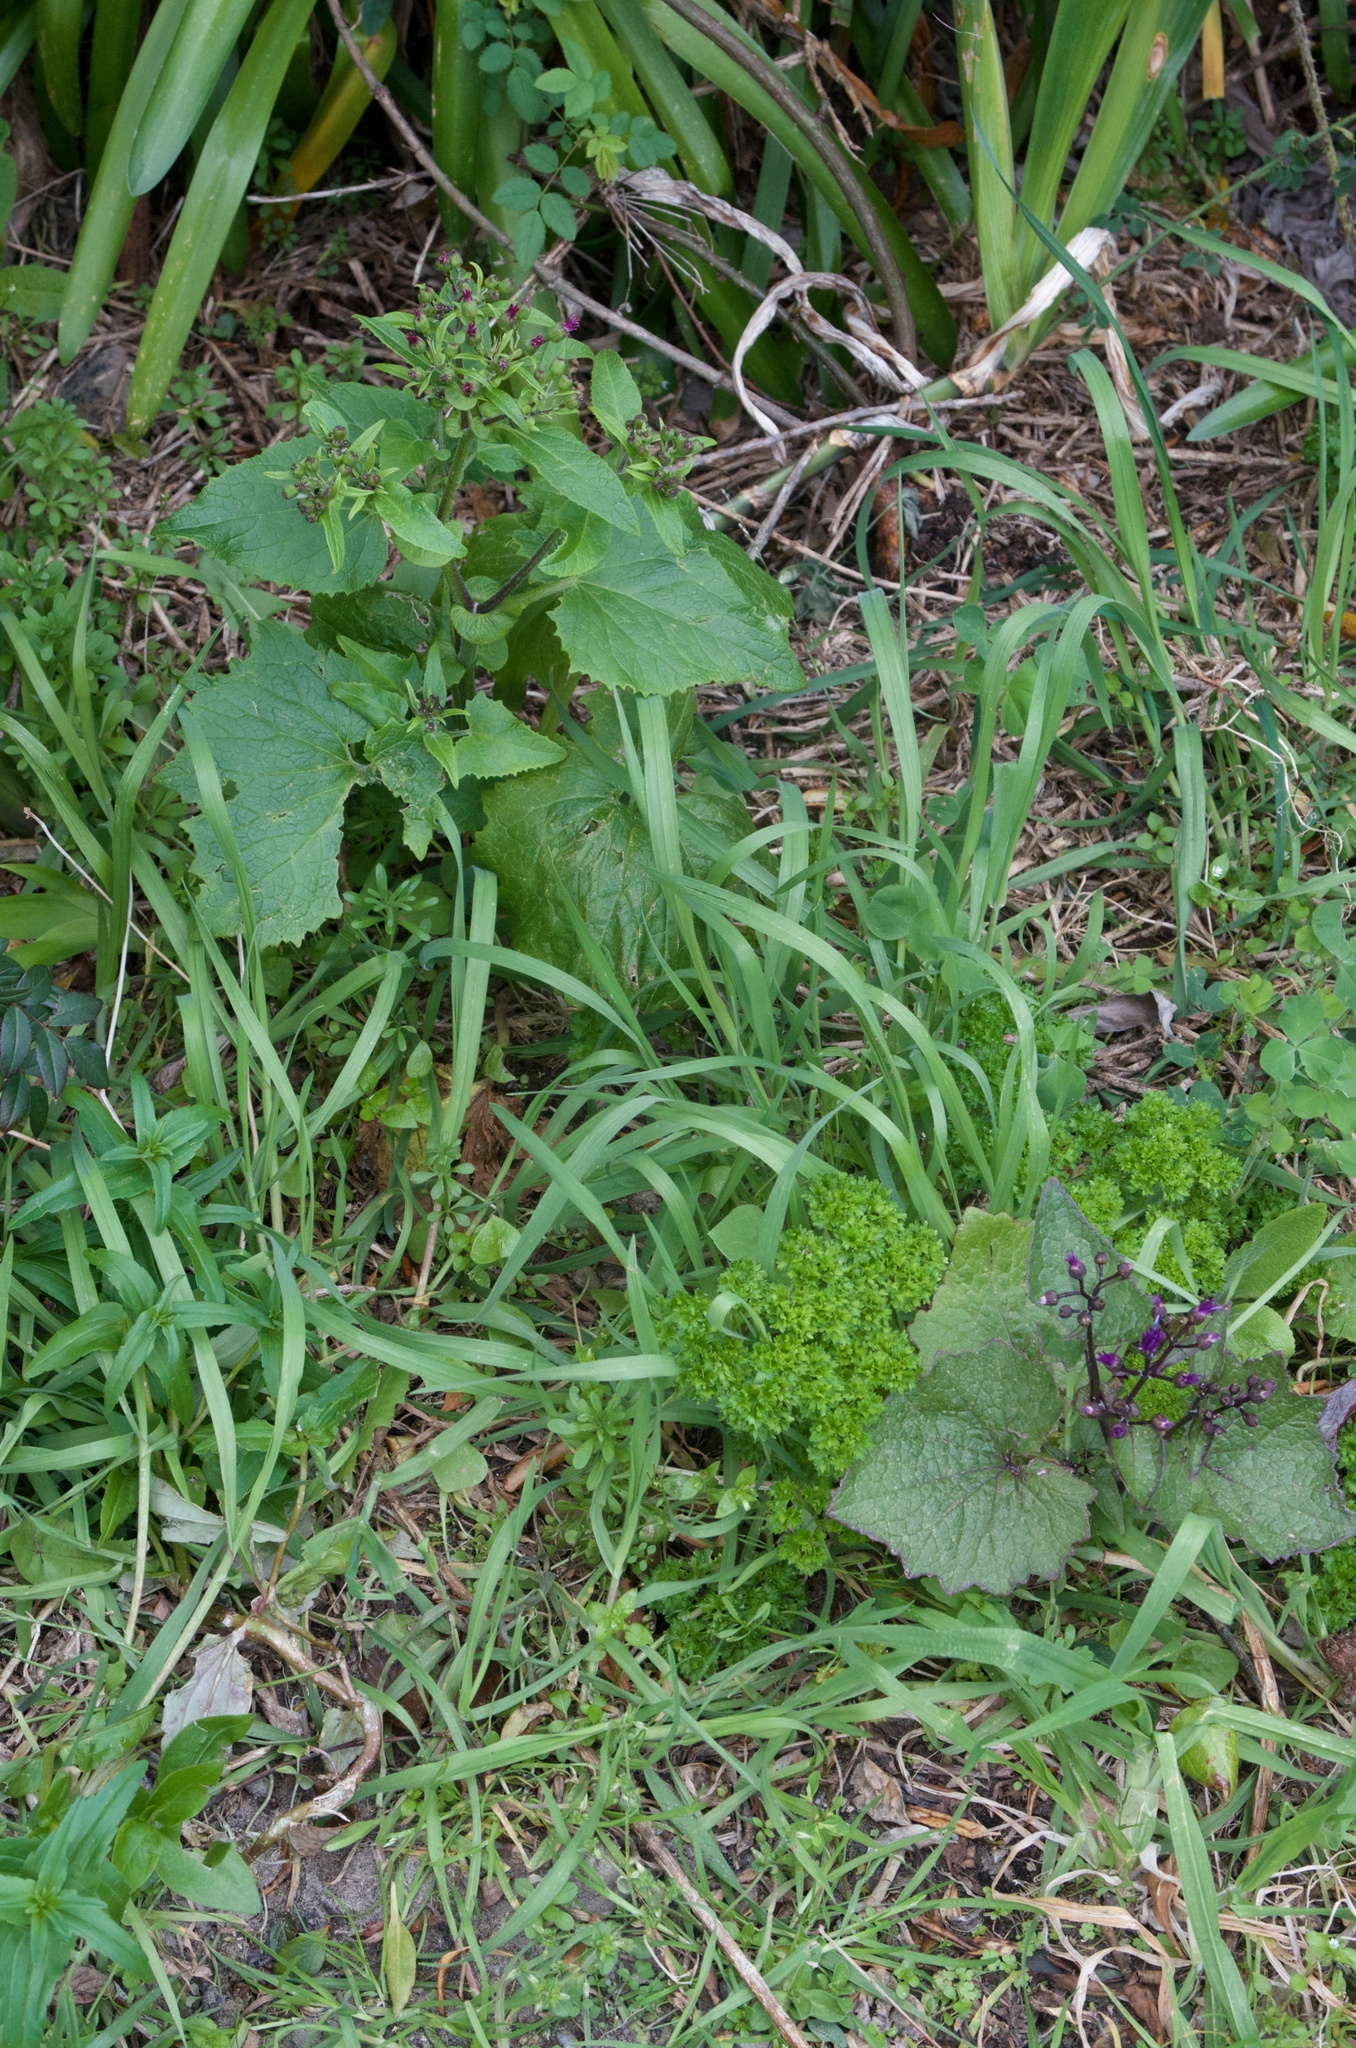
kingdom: Plantae
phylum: Tracheophyta
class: Magnoliopsida
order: Asterales
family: Asteraceae
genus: Pericallis
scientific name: Pericallis hybrida
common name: Cineraria
